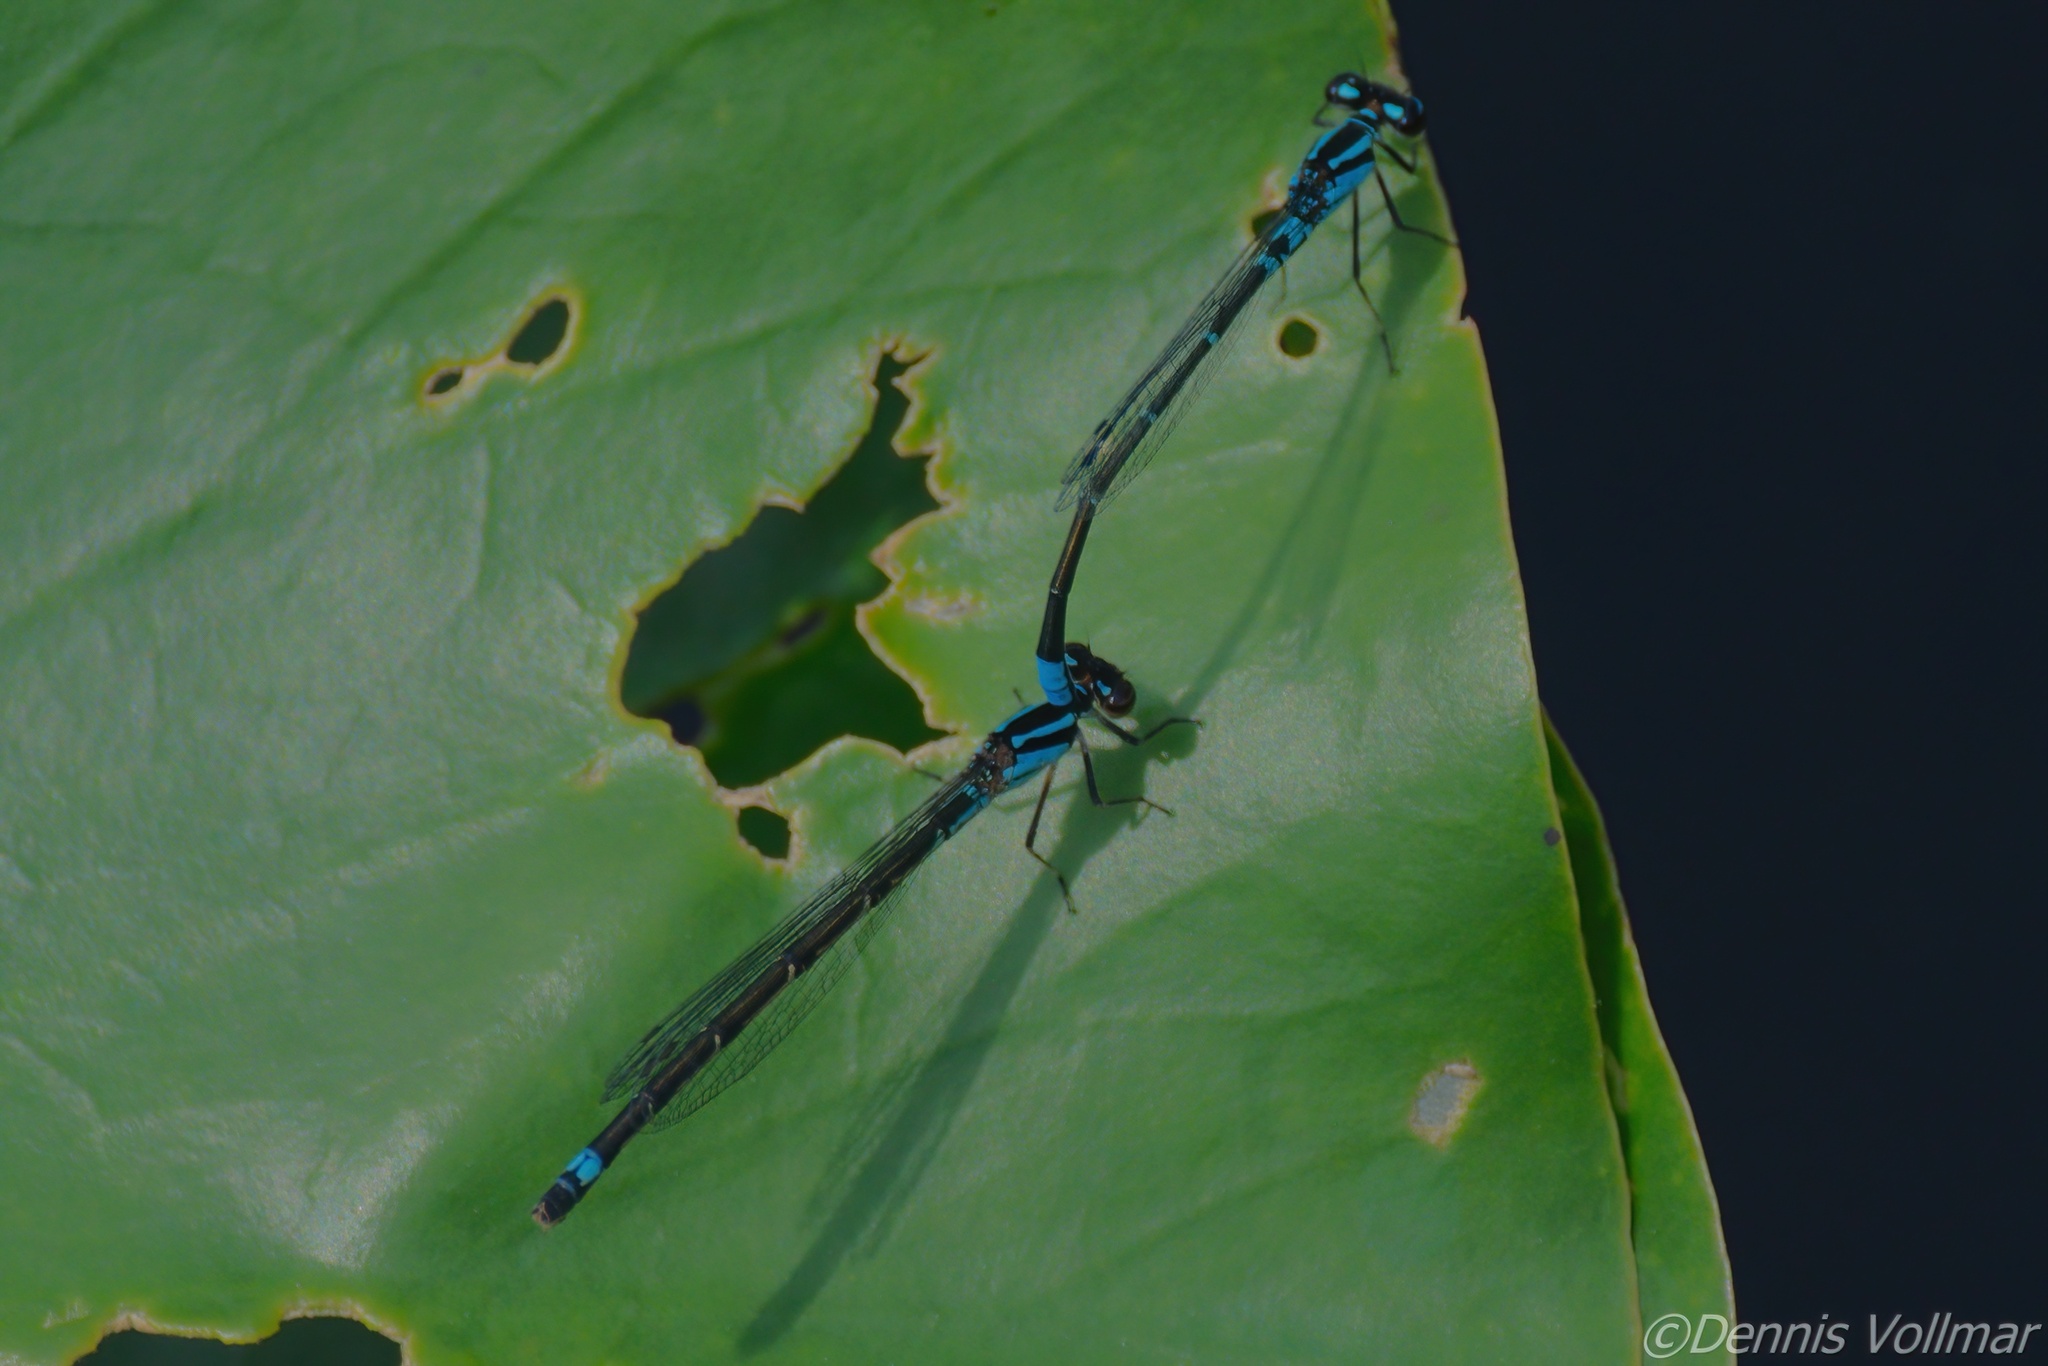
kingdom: Animalia
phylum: Arthropoda
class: Insecta
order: Odonata
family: Coenagrionidae
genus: Enallagma
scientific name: Enallagma geminatum
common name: Skimming bluet
